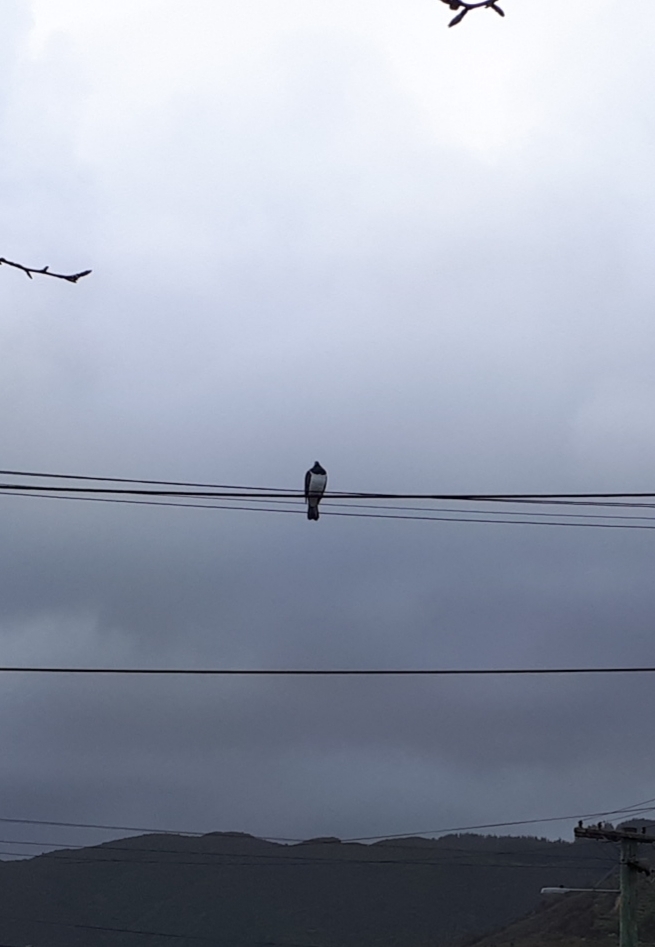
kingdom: Animalia
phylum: Chordata
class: Aves
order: Columbiformes
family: Columbidae
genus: Hemiphaga
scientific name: Hemiphaga novaeseelandiae
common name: New zealand pigeon
